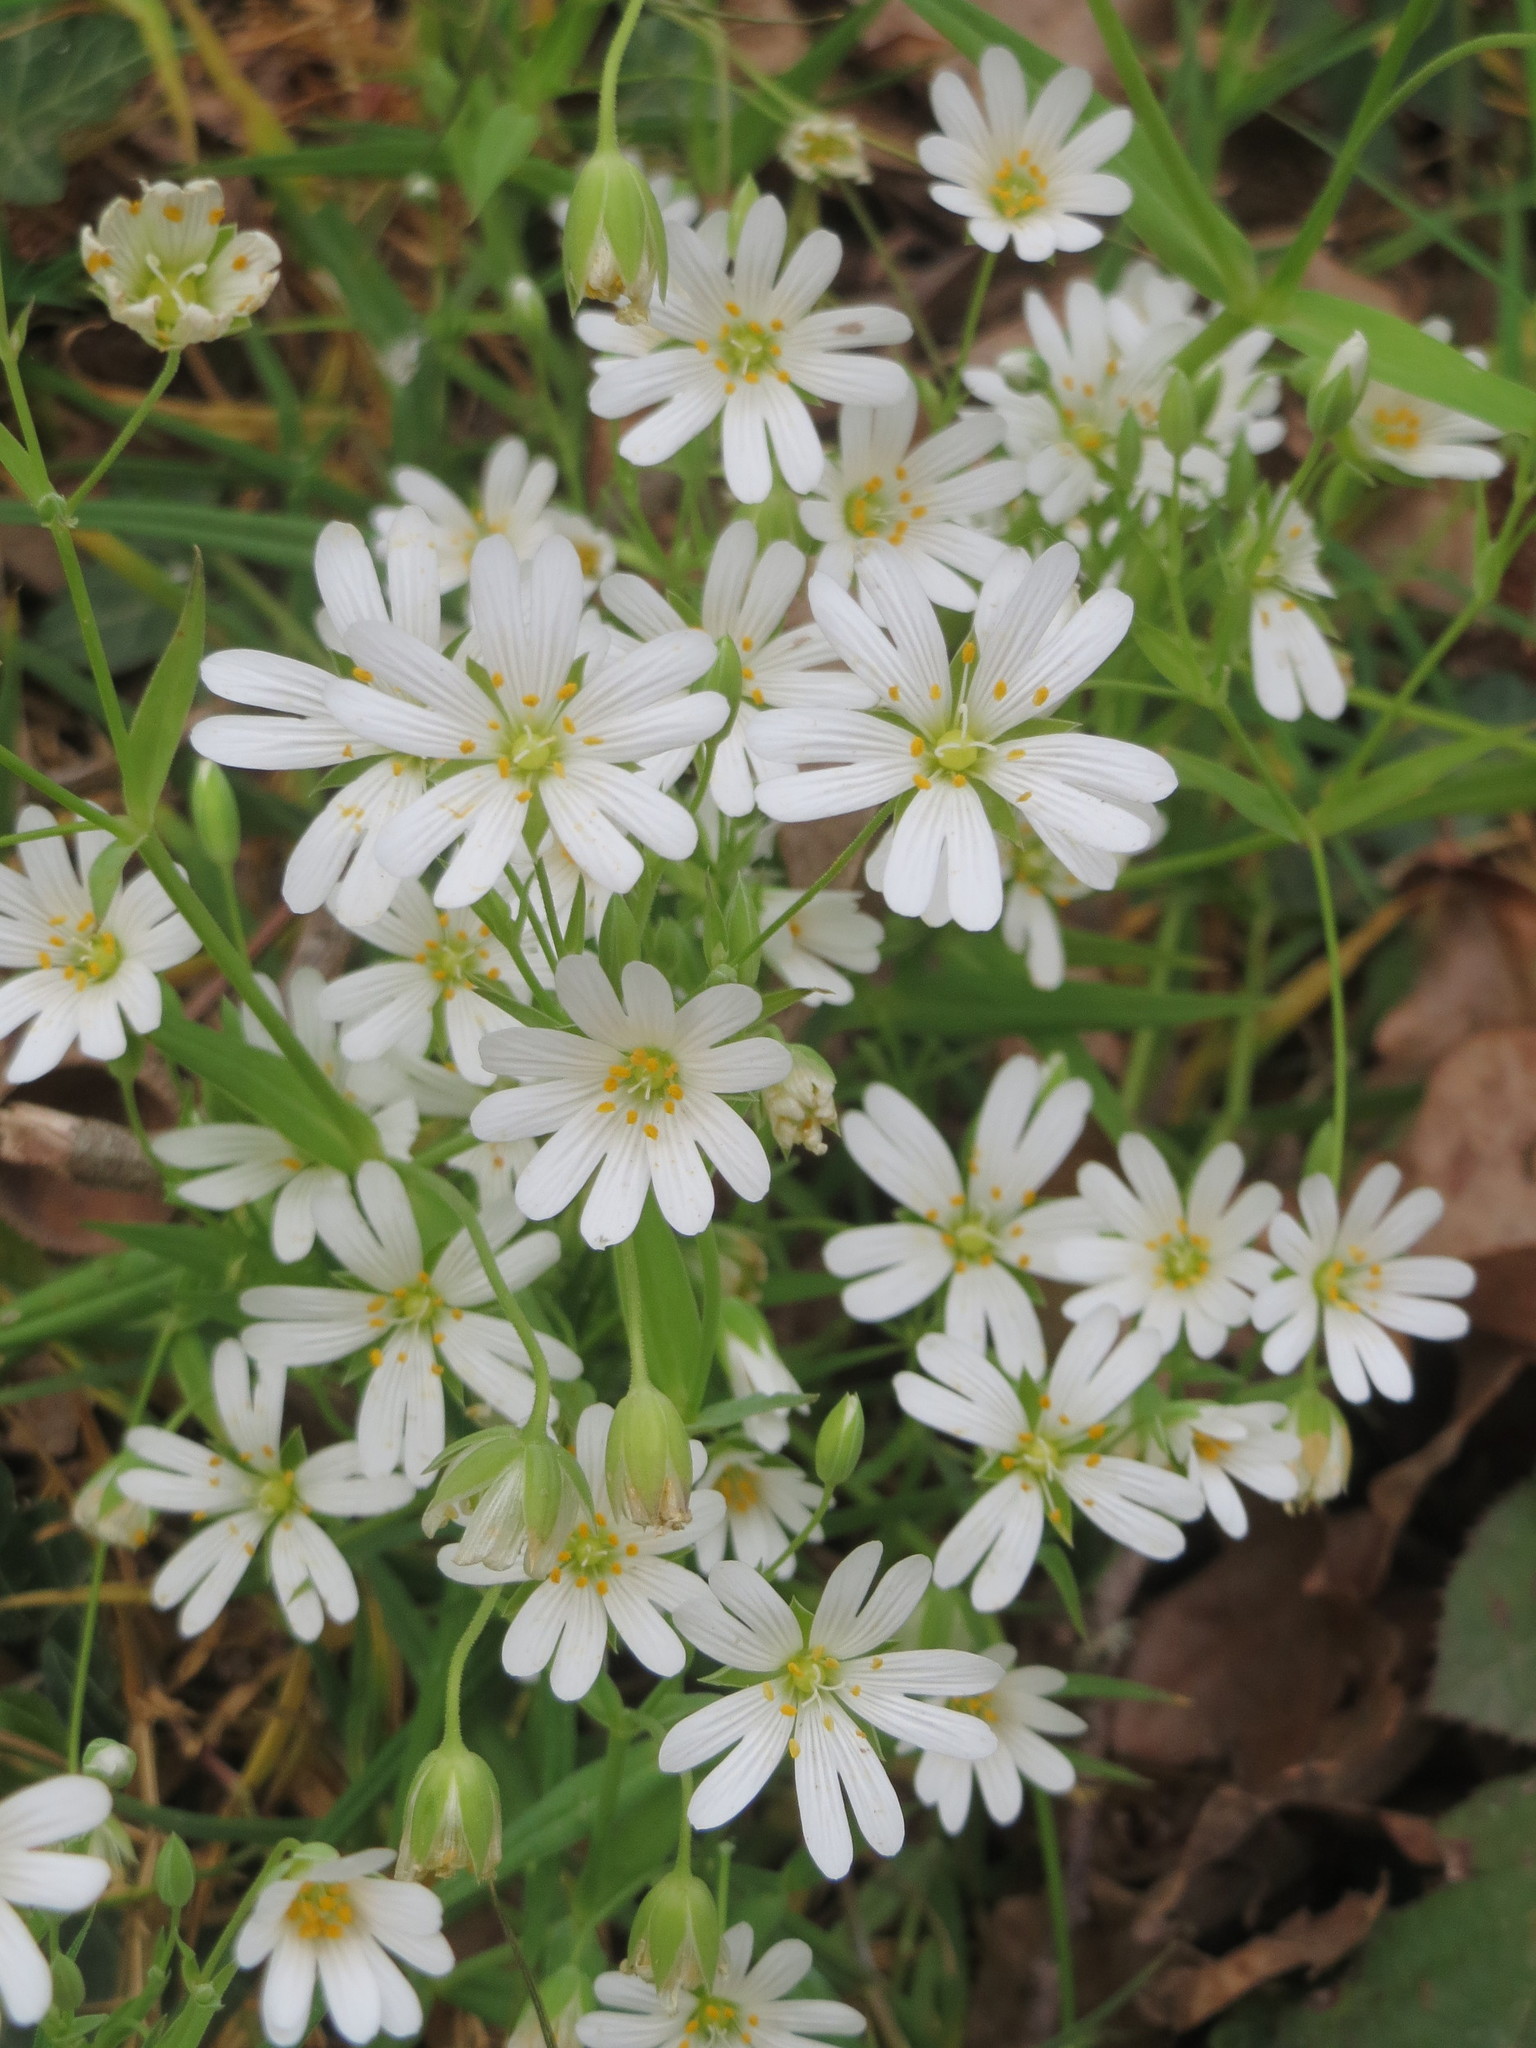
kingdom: Plantae
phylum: Tracheophyta
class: Magnoliopsida
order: Caryophyllales
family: Caryophyllaceae
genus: Rabelera
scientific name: Rabelera holostea
